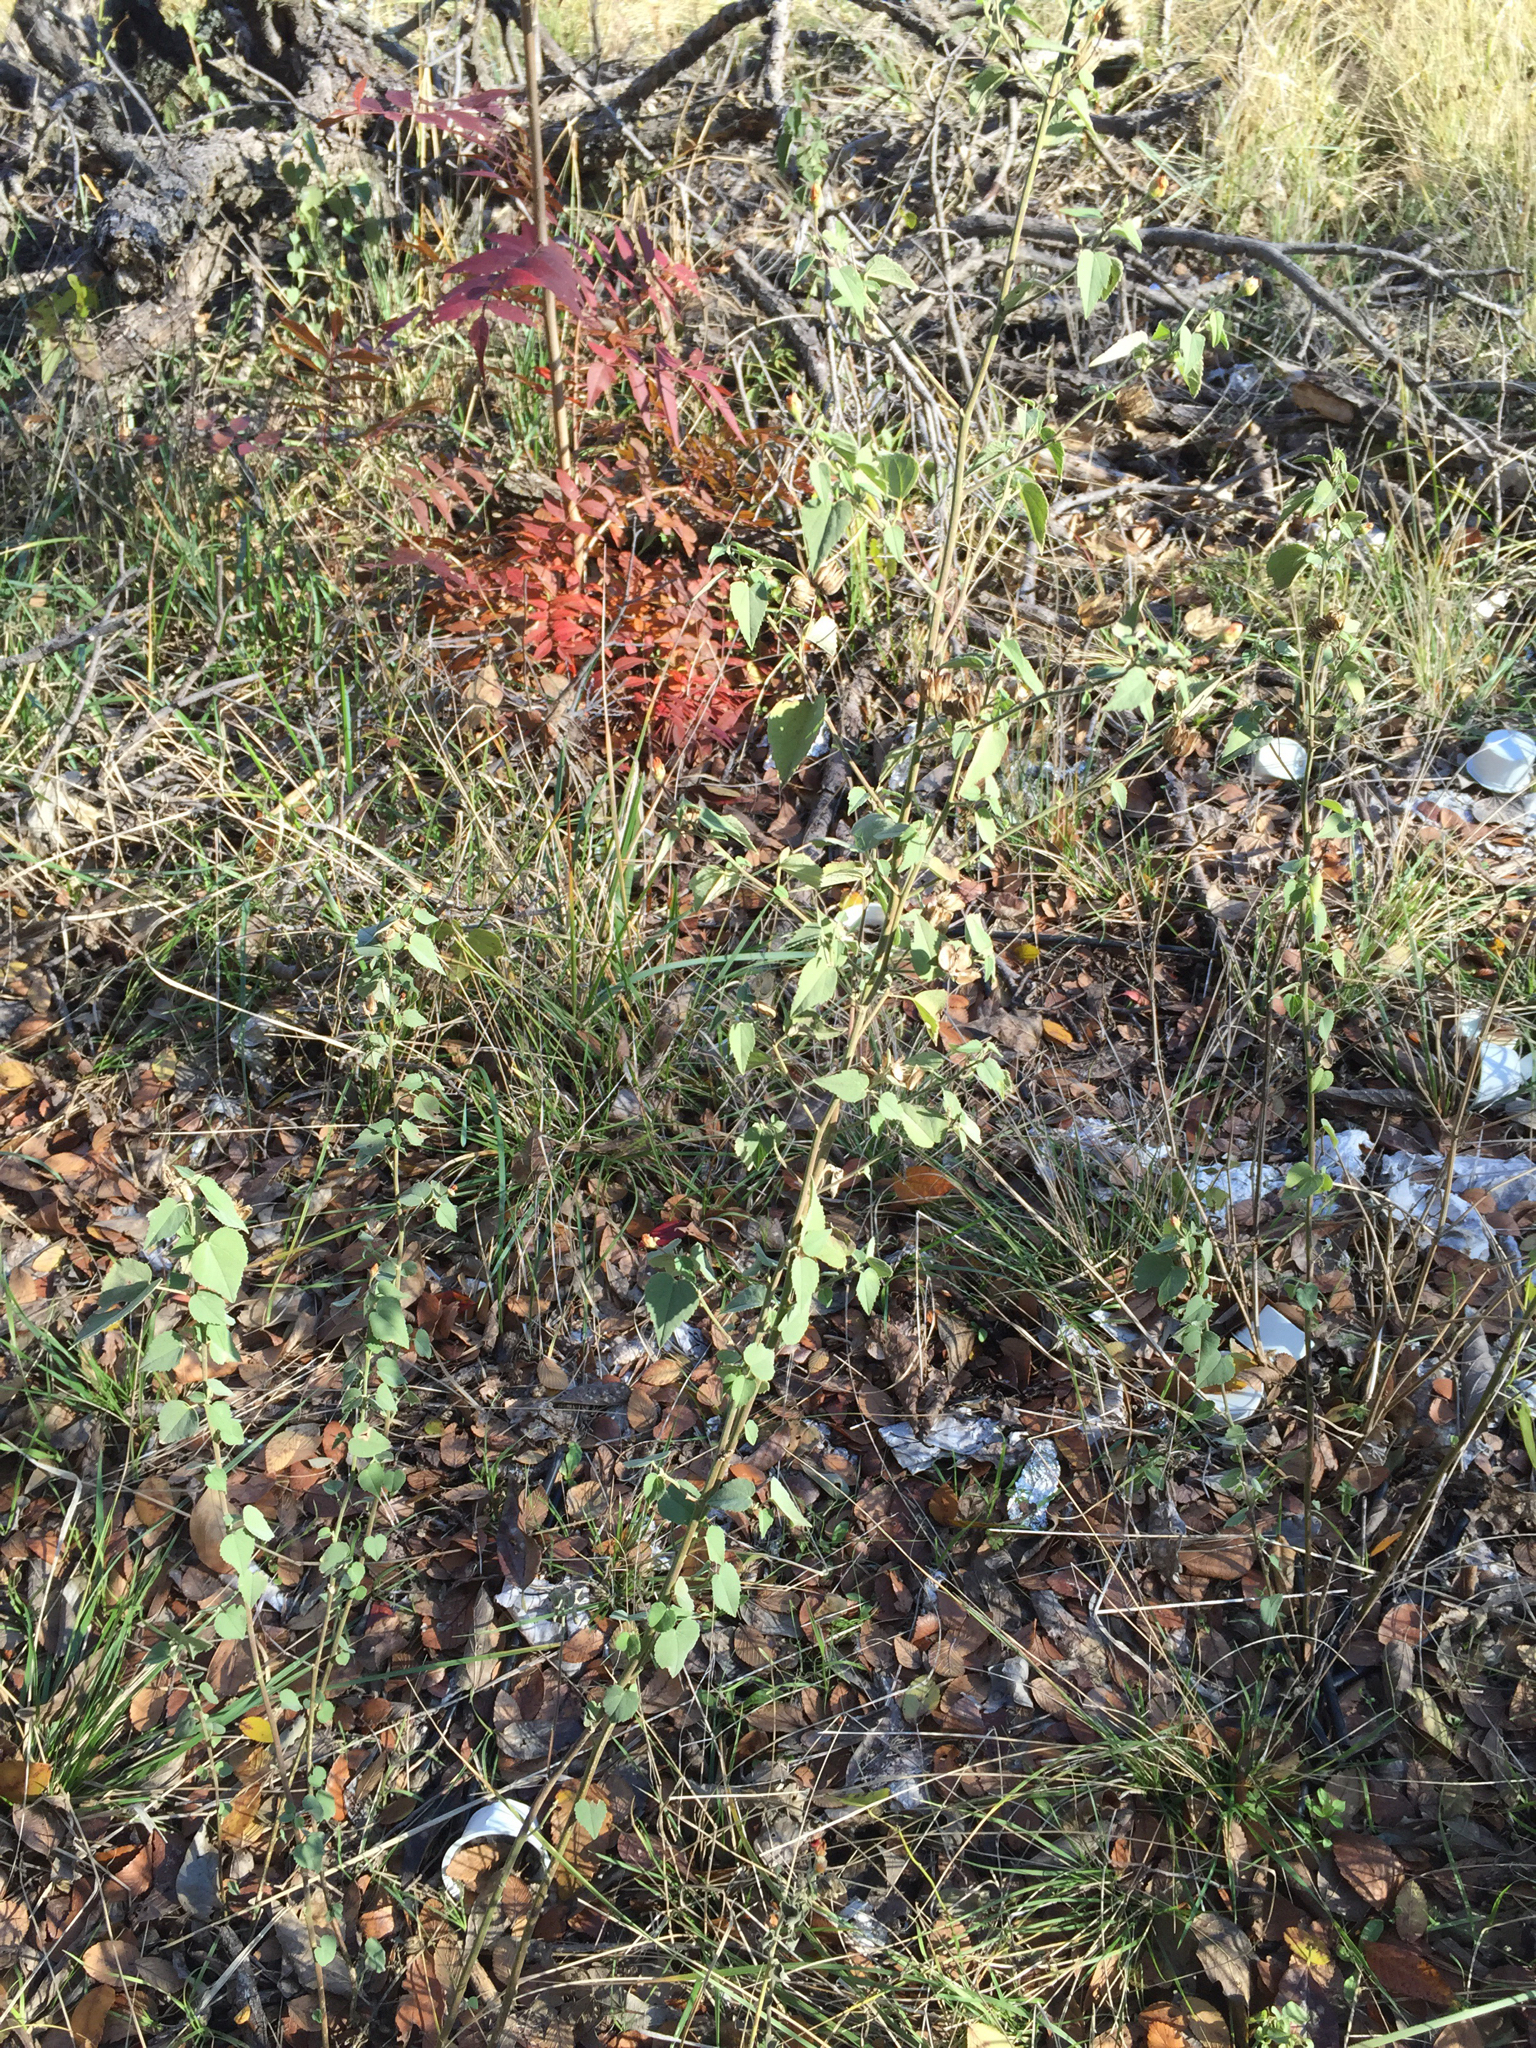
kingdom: Plantae
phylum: Tracheophyta
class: Magnoliopsida
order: Malvales
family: Malvaceae
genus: Abutilon
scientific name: Abutilon fruticosum
